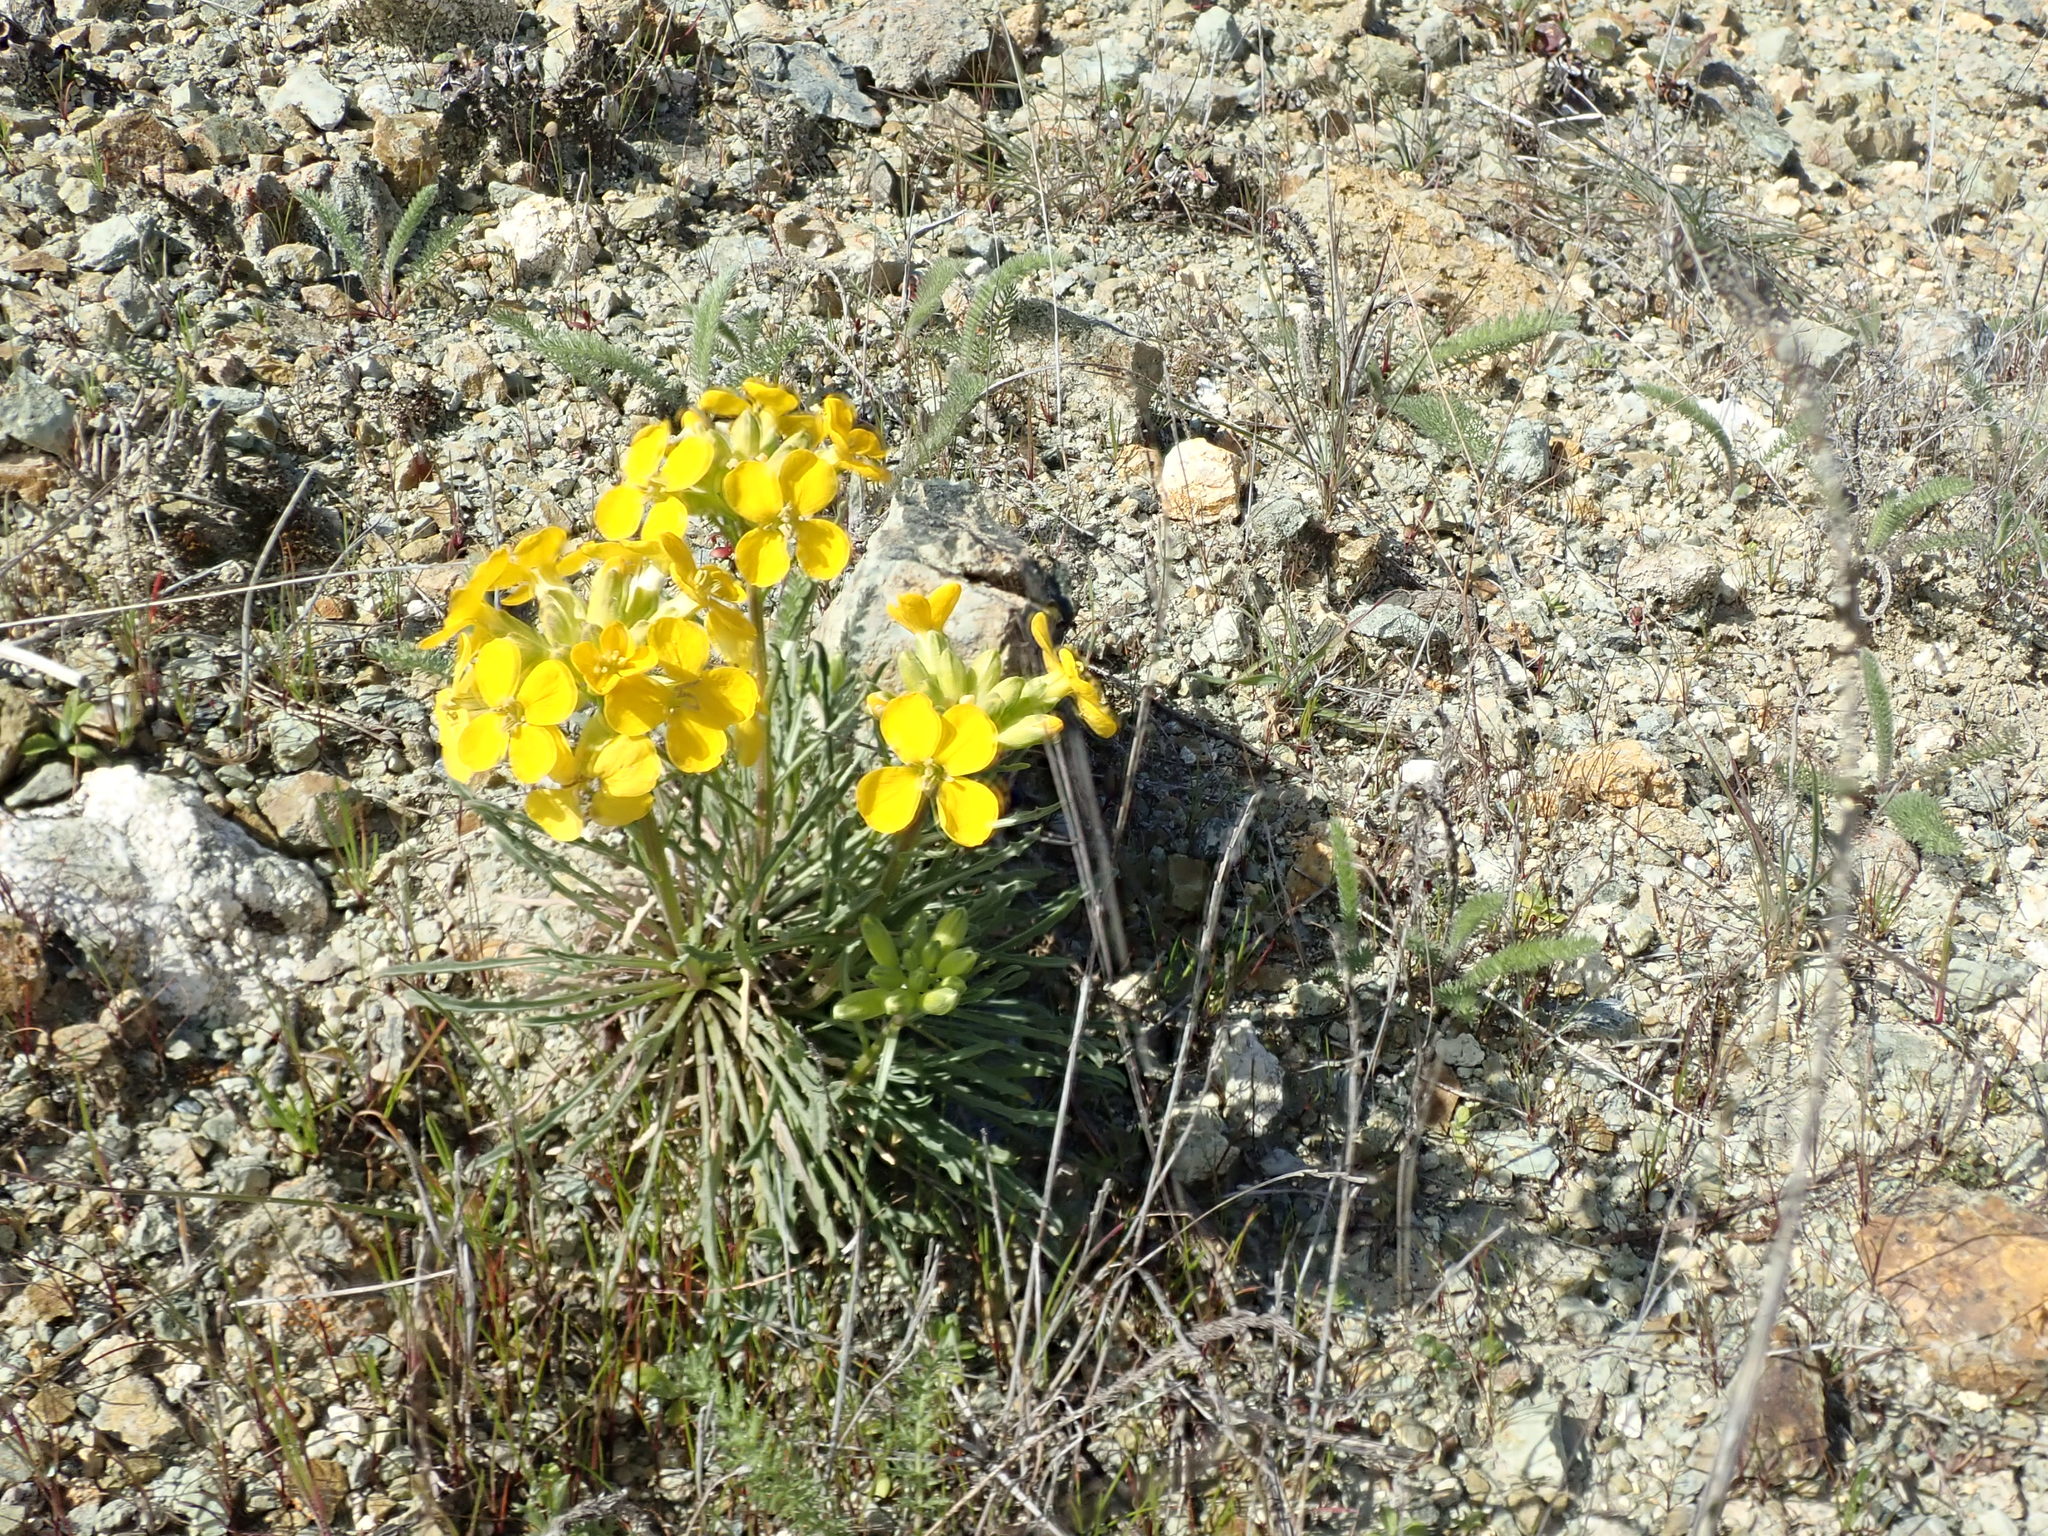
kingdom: Plantae
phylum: Tracheophyta
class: Magnoliopsida
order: Brassicales
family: Brassicaceae
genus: Erysimum
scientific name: Erysimum franciscanum
